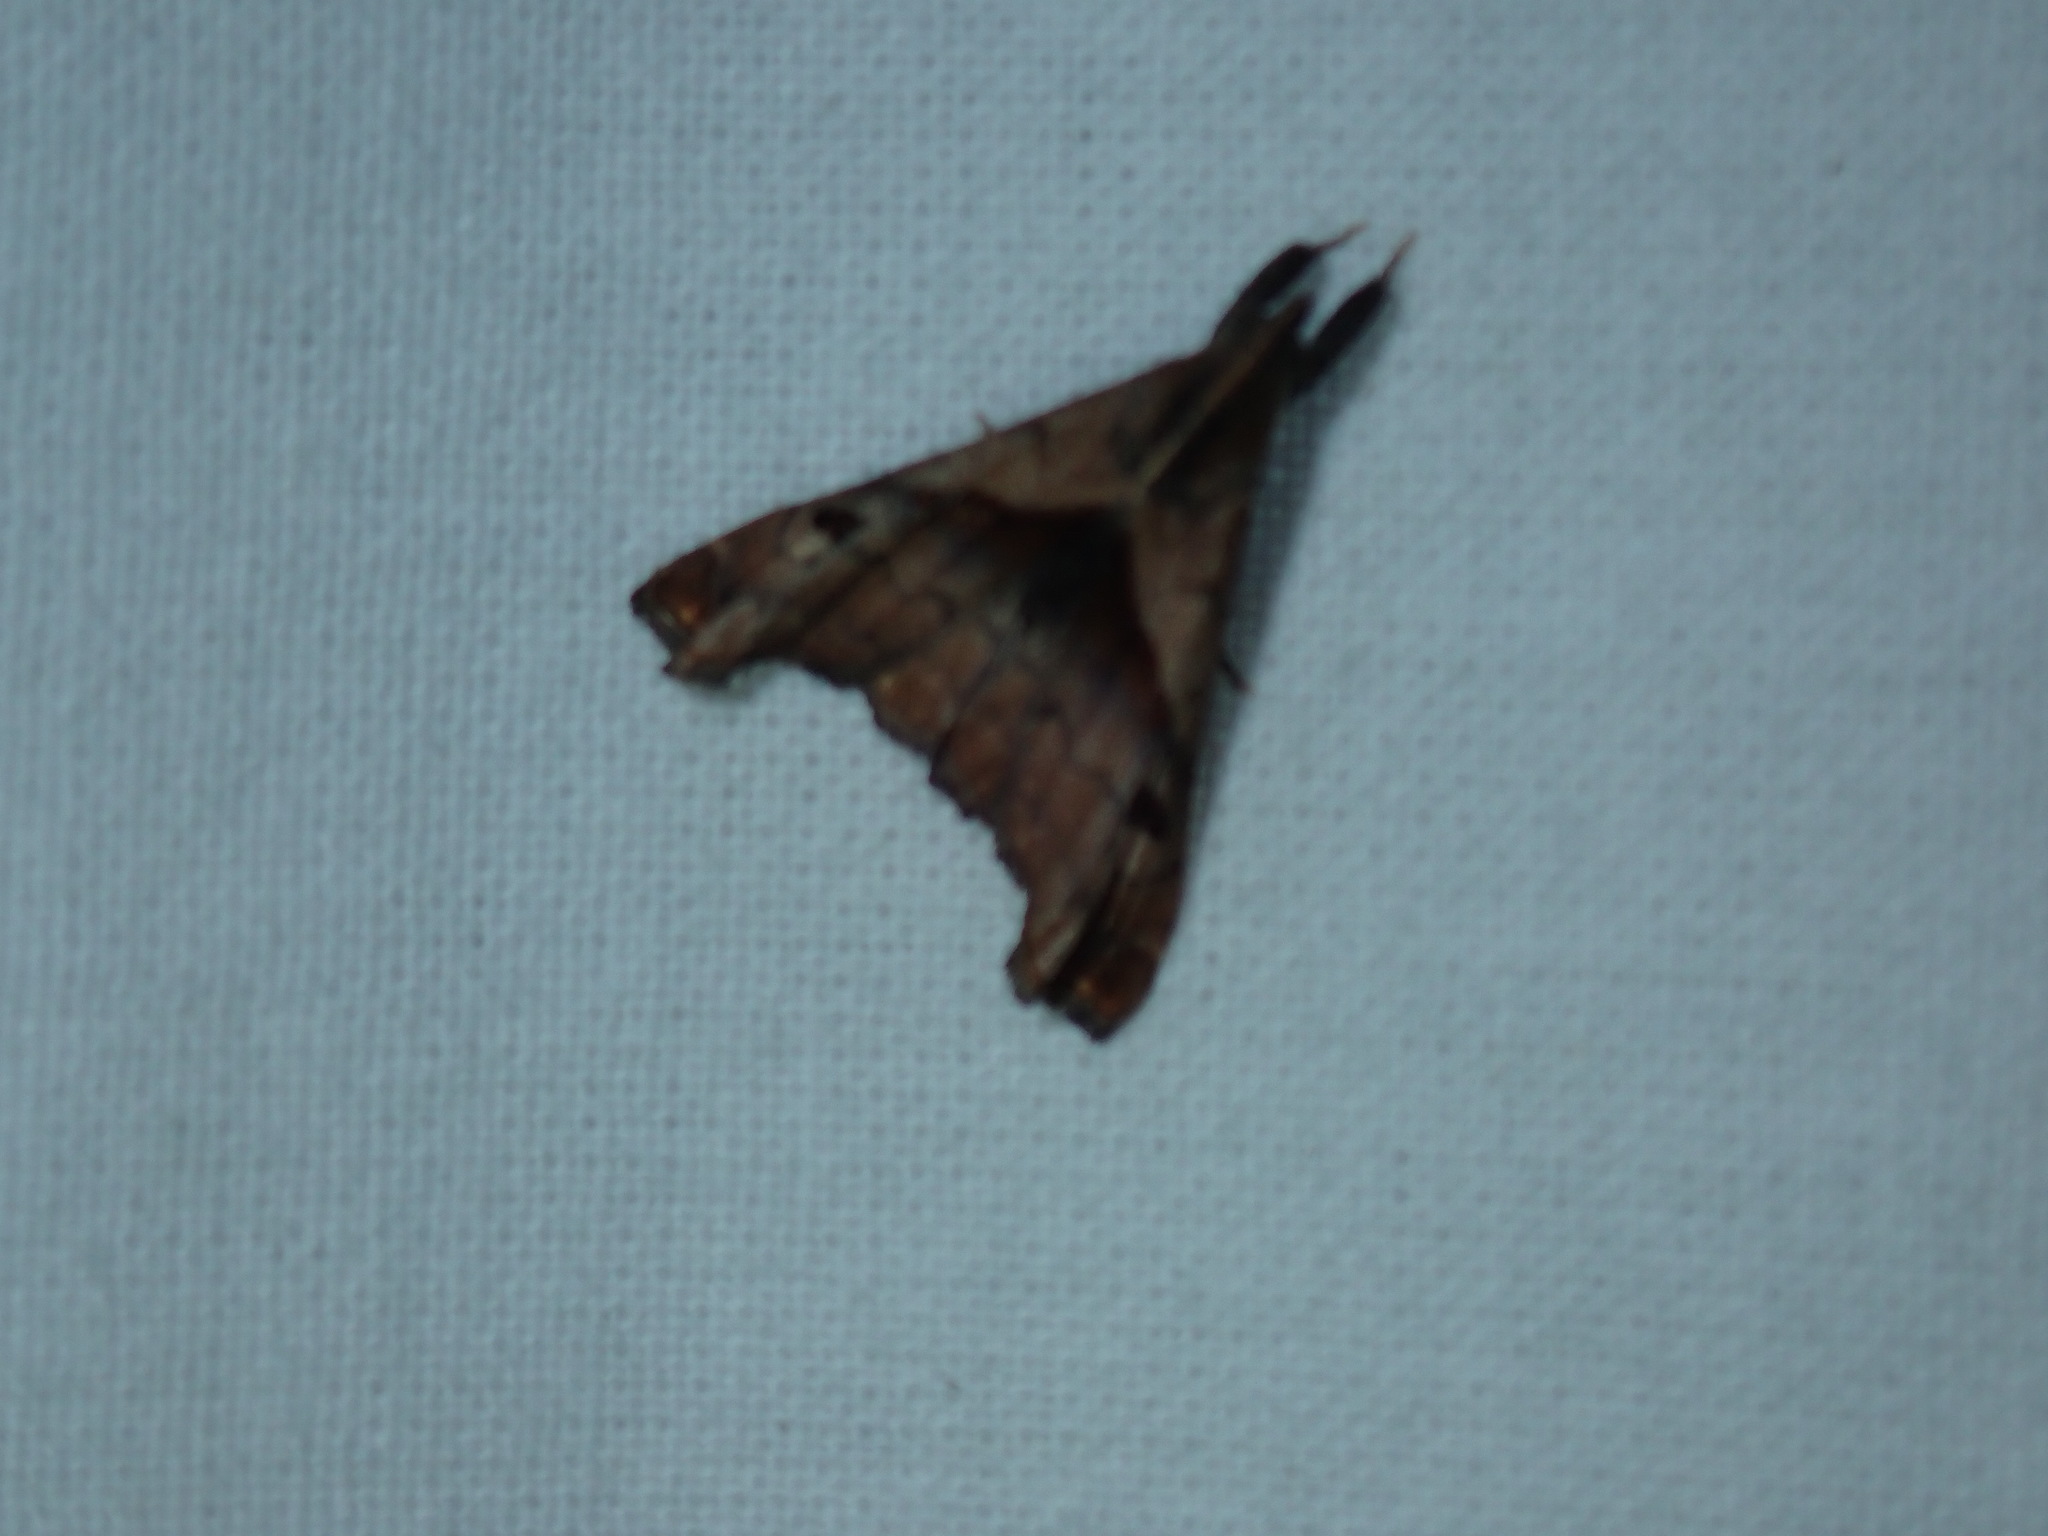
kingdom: Animalia
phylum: Arthropoda
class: Insecta
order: Lepidoptera
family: Erebidae
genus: Palthis
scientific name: Palthis angulalis
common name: Dark-spotted palthis moth
